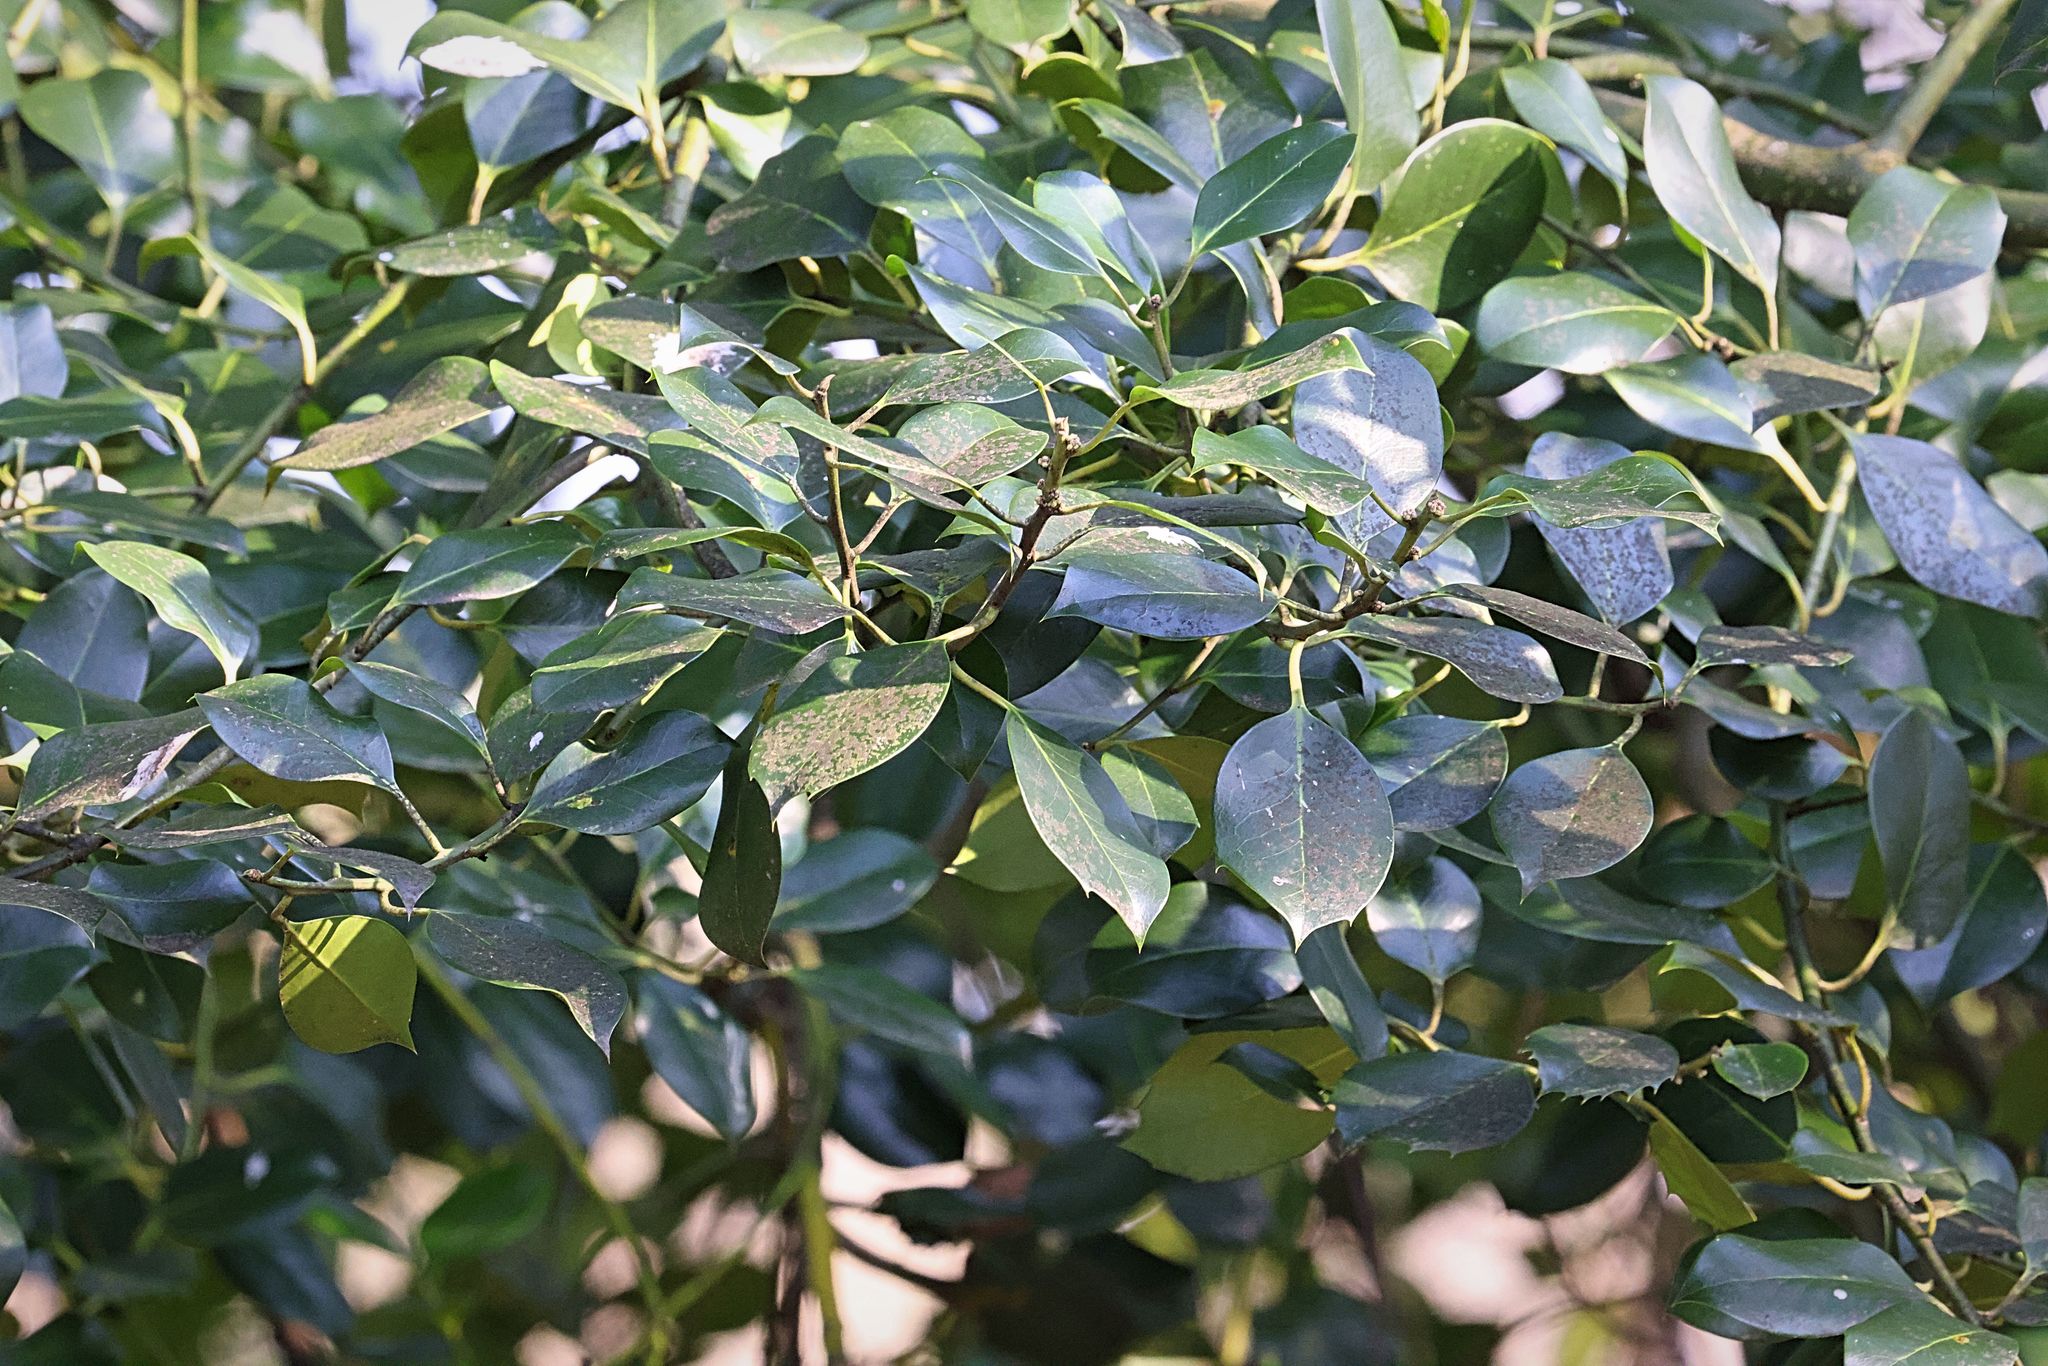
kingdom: Plantae
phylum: Tracheophyta
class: Magnoliopsida
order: Aquifoliales
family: Aquifoliaceae
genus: Ilex
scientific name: Ilex aquifolium
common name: English holly
